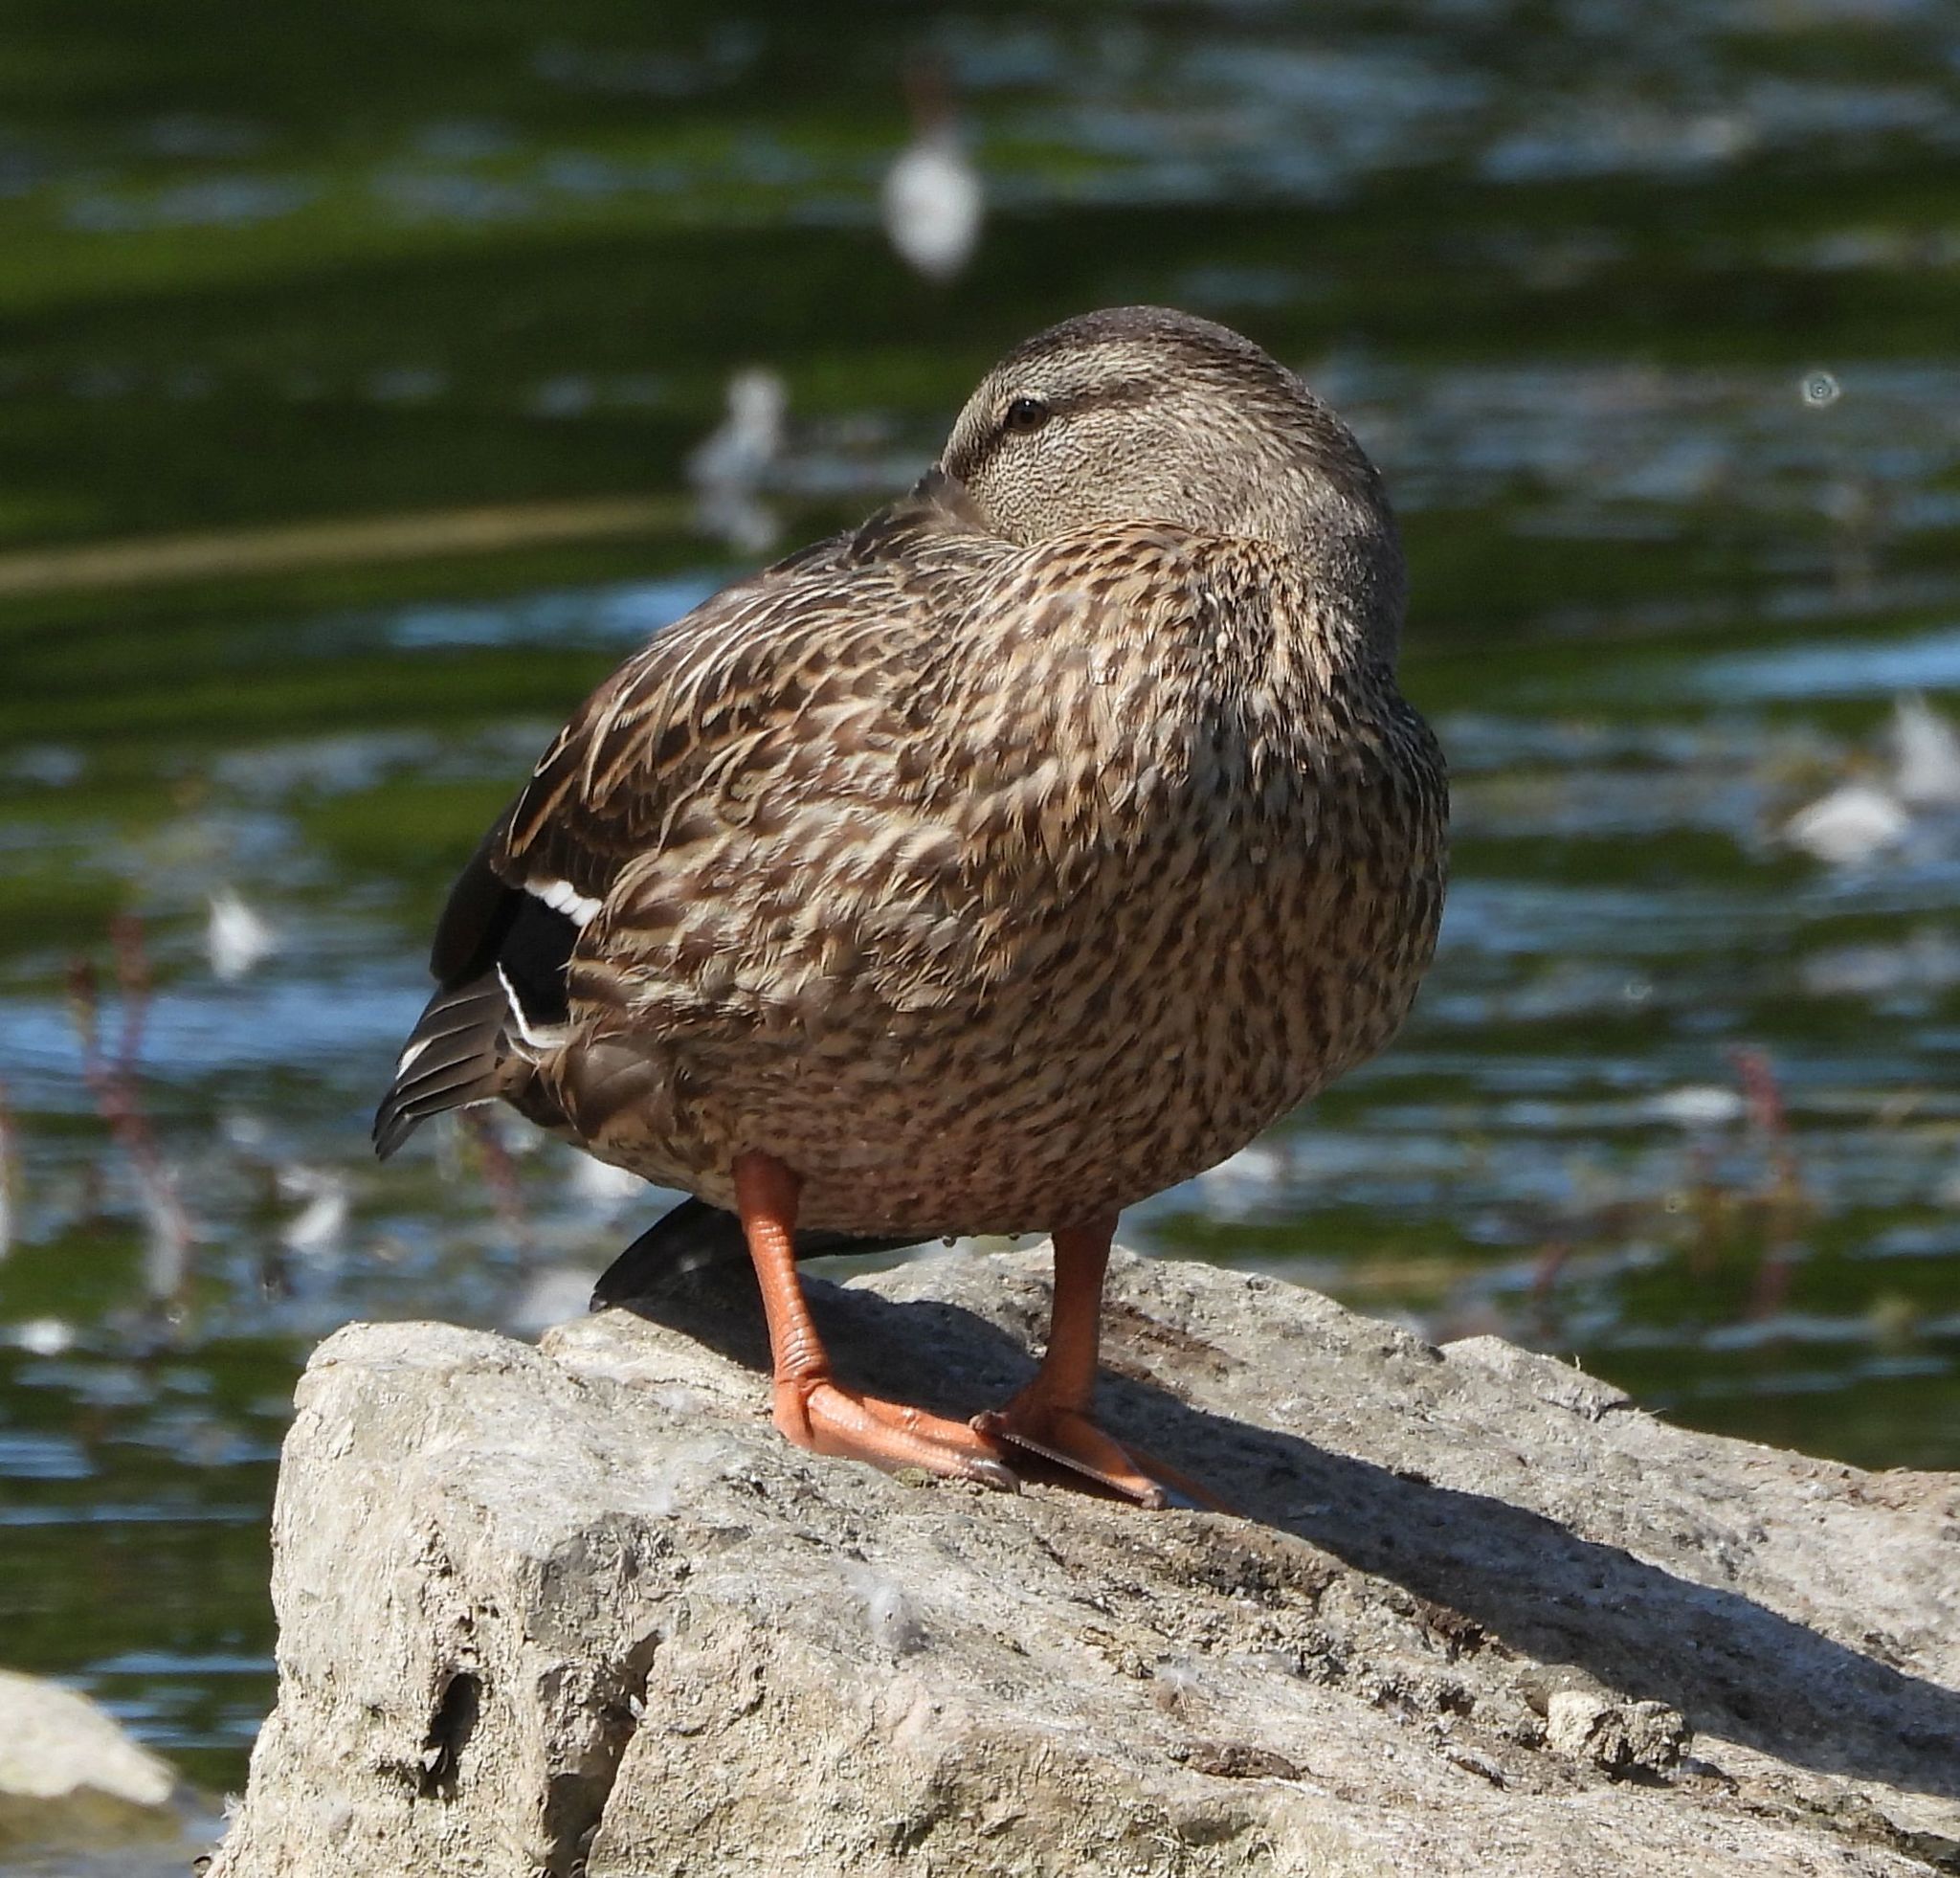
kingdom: Animalia
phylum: Chordata
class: Aves
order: Anseriformes
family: Anatidae
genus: Anas
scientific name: Anas platyrhynchos
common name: Mallard
